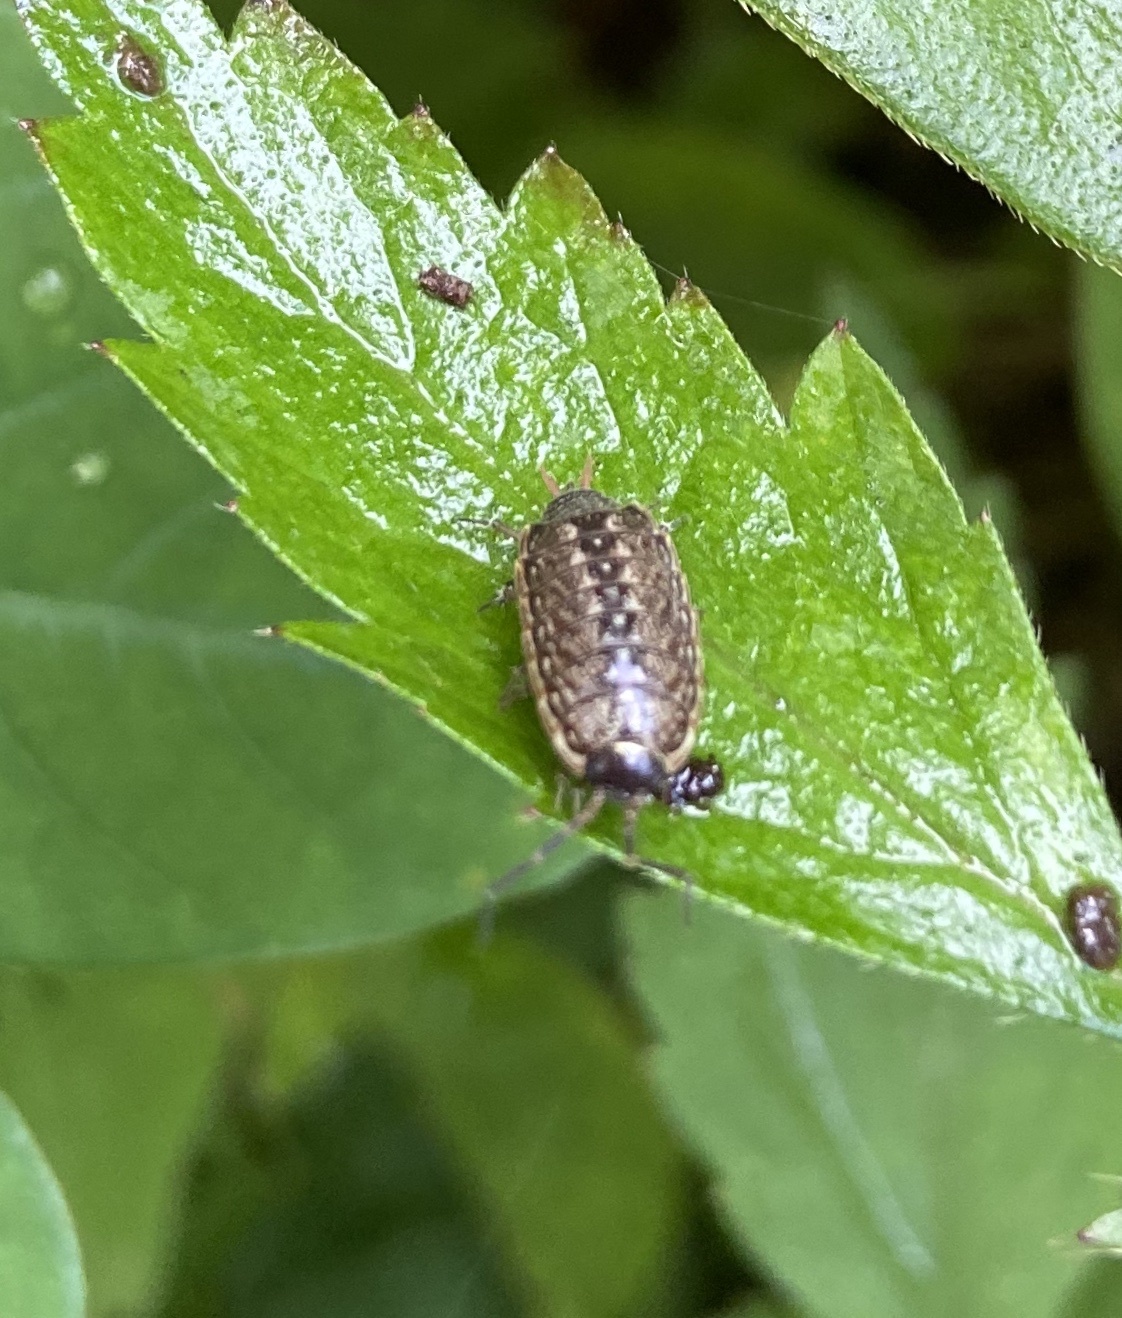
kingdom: Animalia
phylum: Arthropoda
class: Malacostraca
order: Isopoda
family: Philosciidae
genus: Philoscia
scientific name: Philoscia muscorum
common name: Common striped woodlouse
